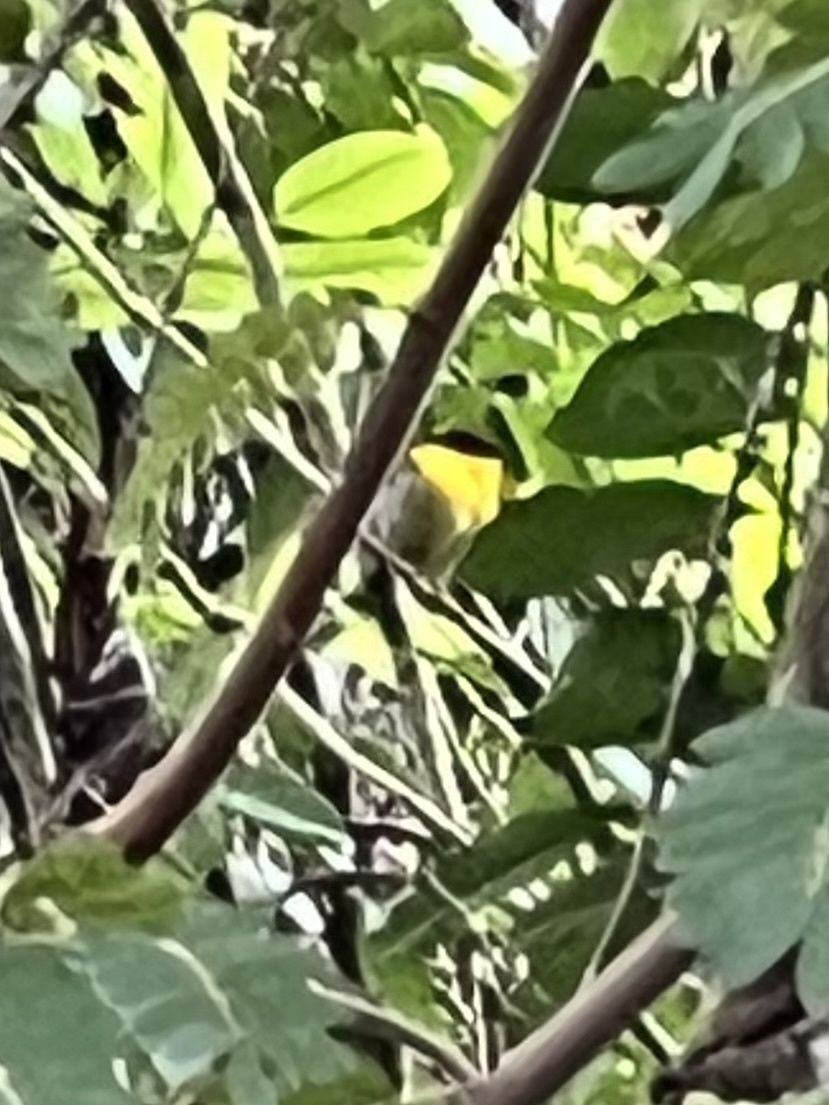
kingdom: Animalia
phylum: Chordata
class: Aves
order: Passeriformes
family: Pipridae
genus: Manacus
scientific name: Manacus vitellinus
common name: Golden-collared manakin
